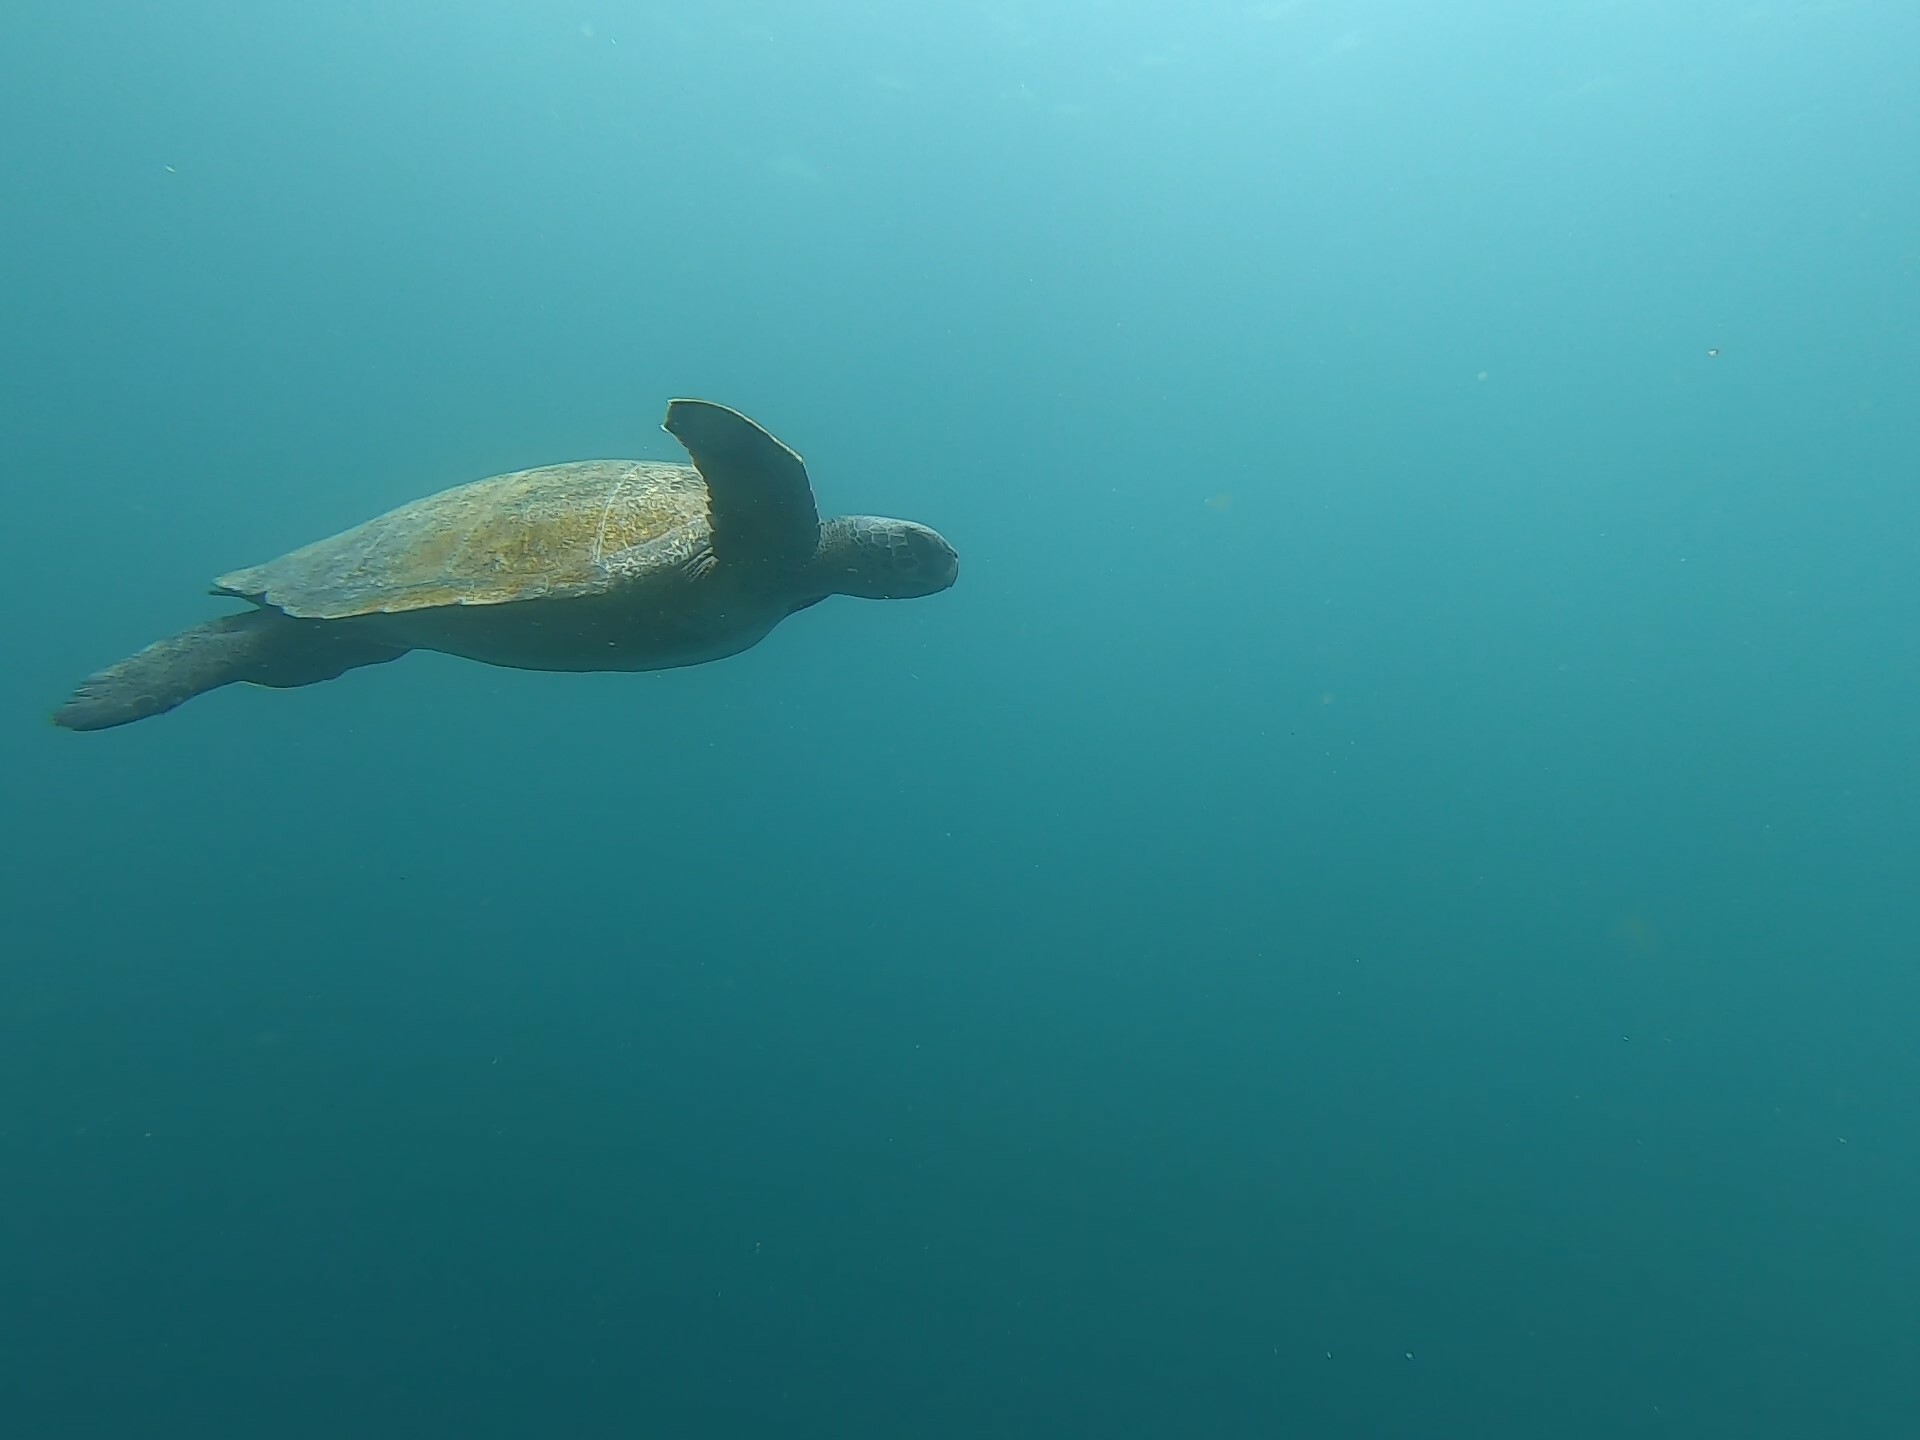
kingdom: Animalia
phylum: Chordata
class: Testudines
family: Cheloniidae
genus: Chelonia
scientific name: Chelonia mydas
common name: Green turtle
